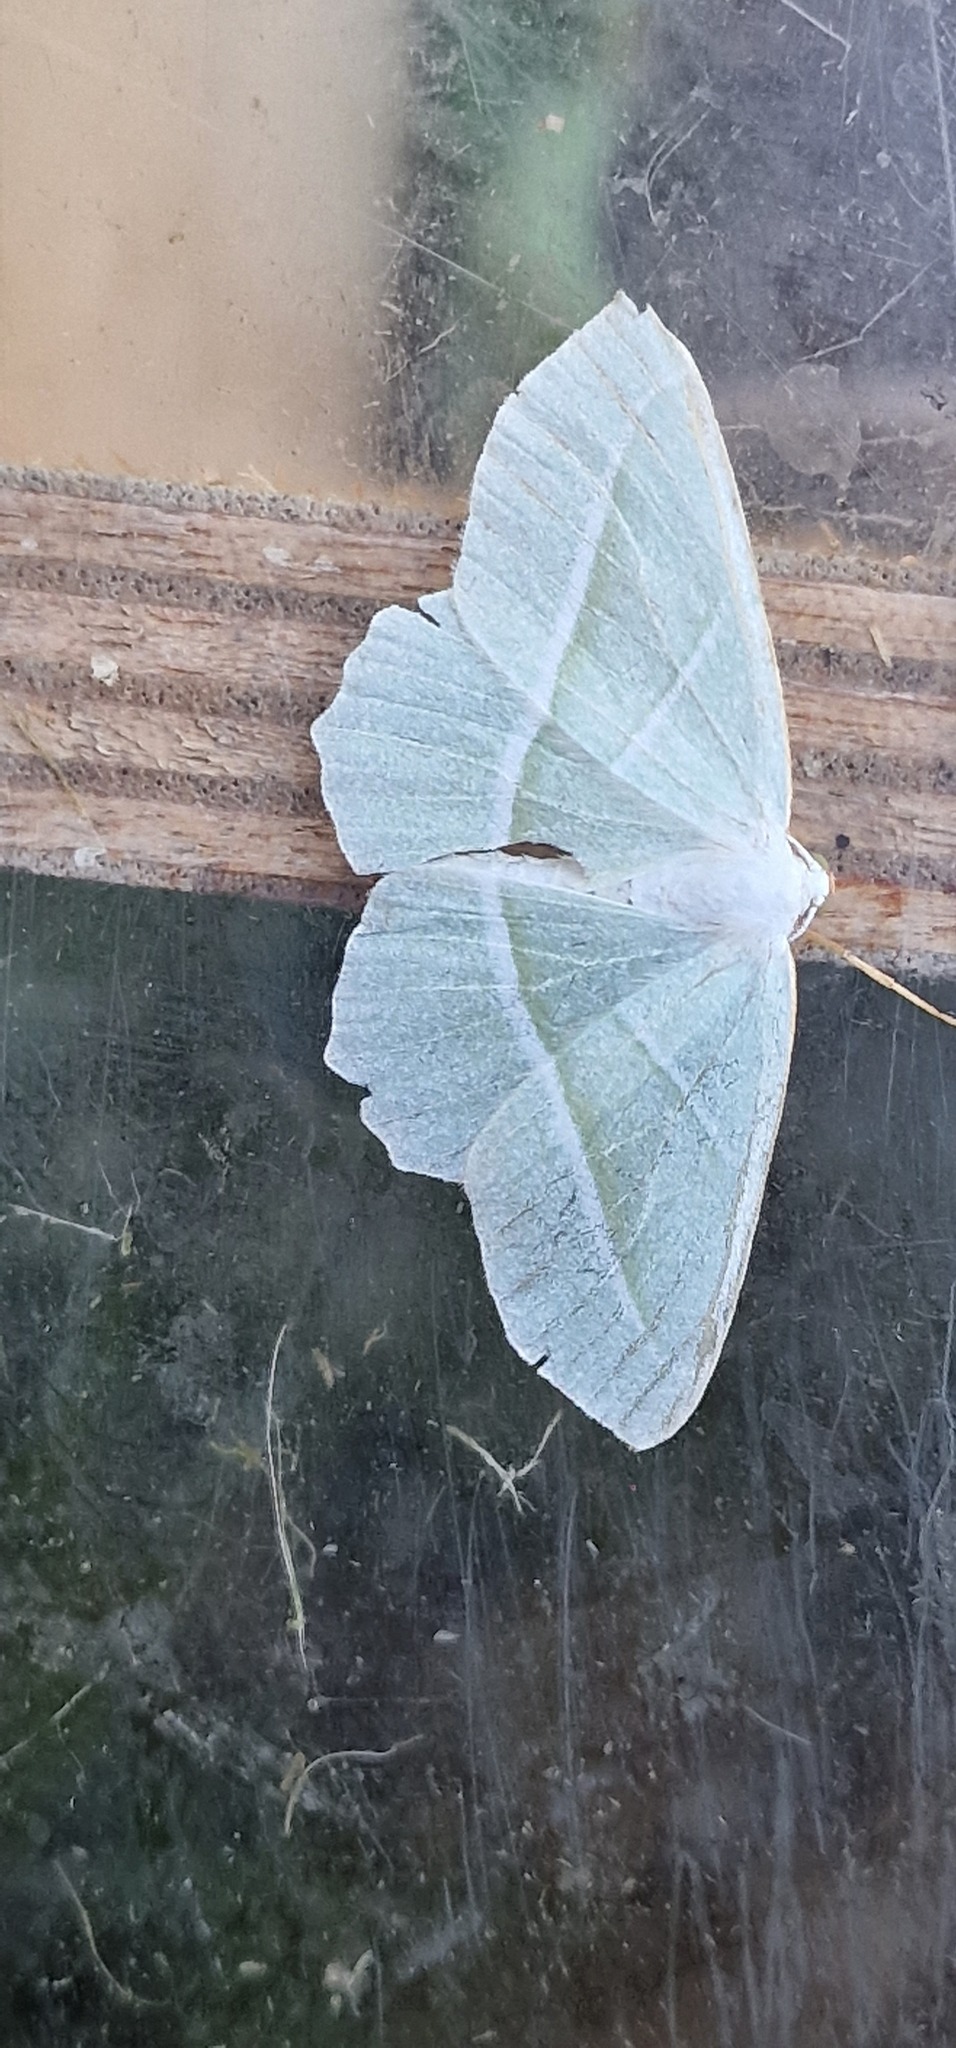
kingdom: Animalia
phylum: Arthropoda
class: Insecta
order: Lepidoptera
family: Geometridae
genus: Campaea
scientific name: Campaea margaritaria
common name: Light emerald
